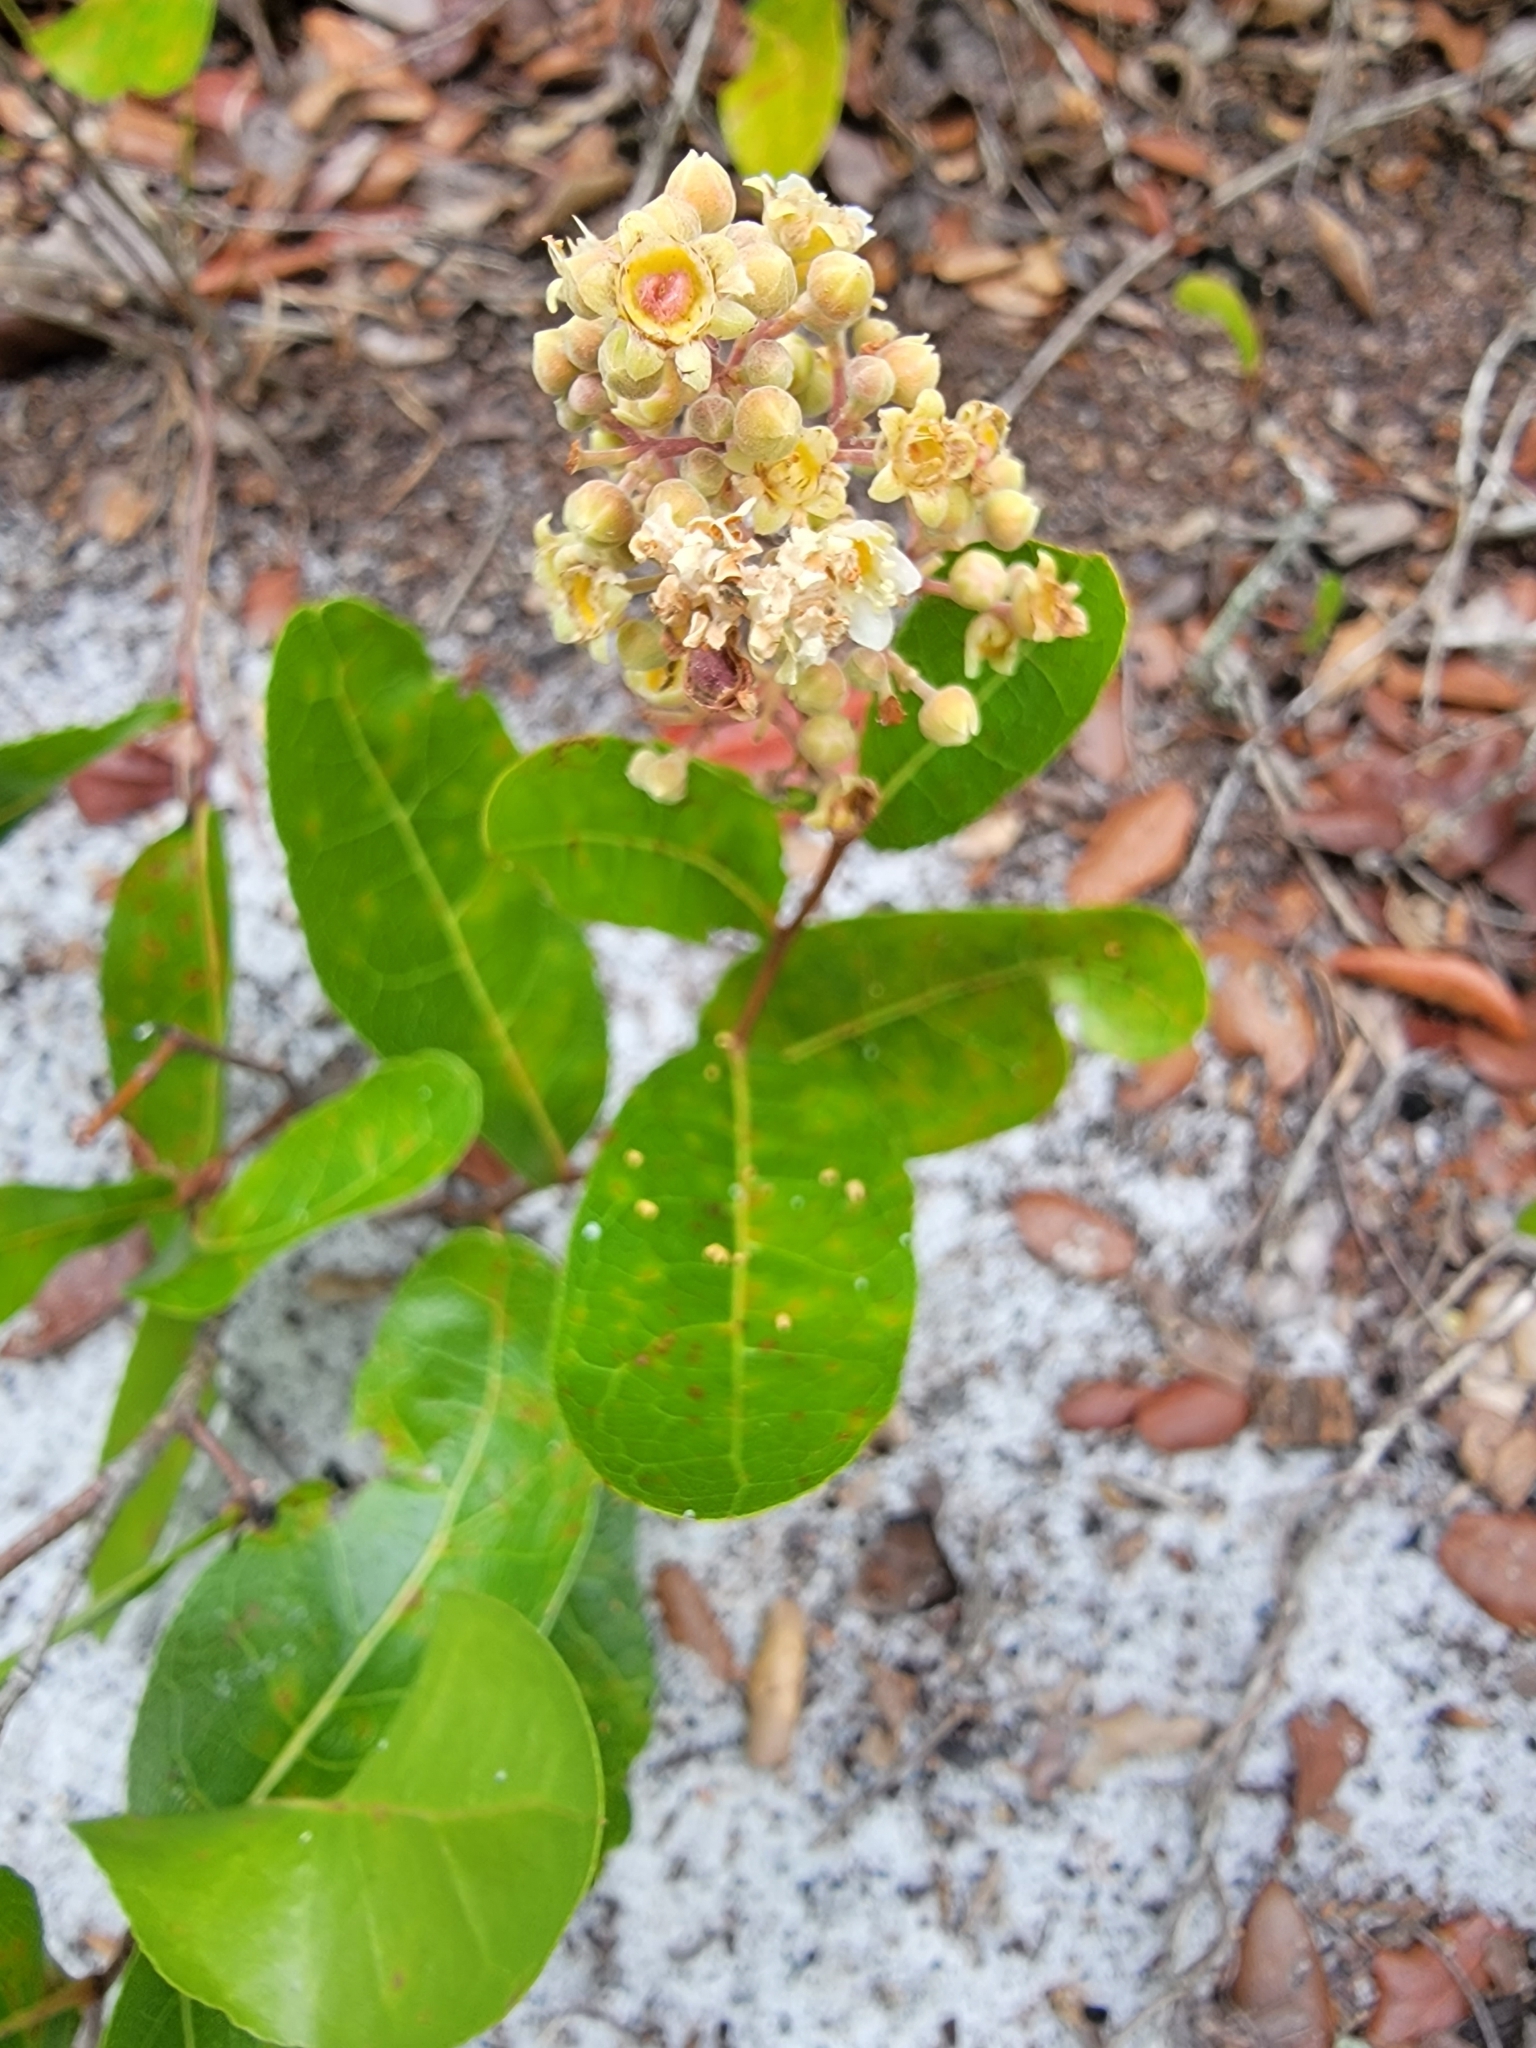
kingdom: Plantae
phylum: Tracheophyta
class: Magnoliopsida
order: Malpighiales
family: Chrysobalanaceae
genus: Geobalanus
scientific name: Geobalanus oblongifolius
